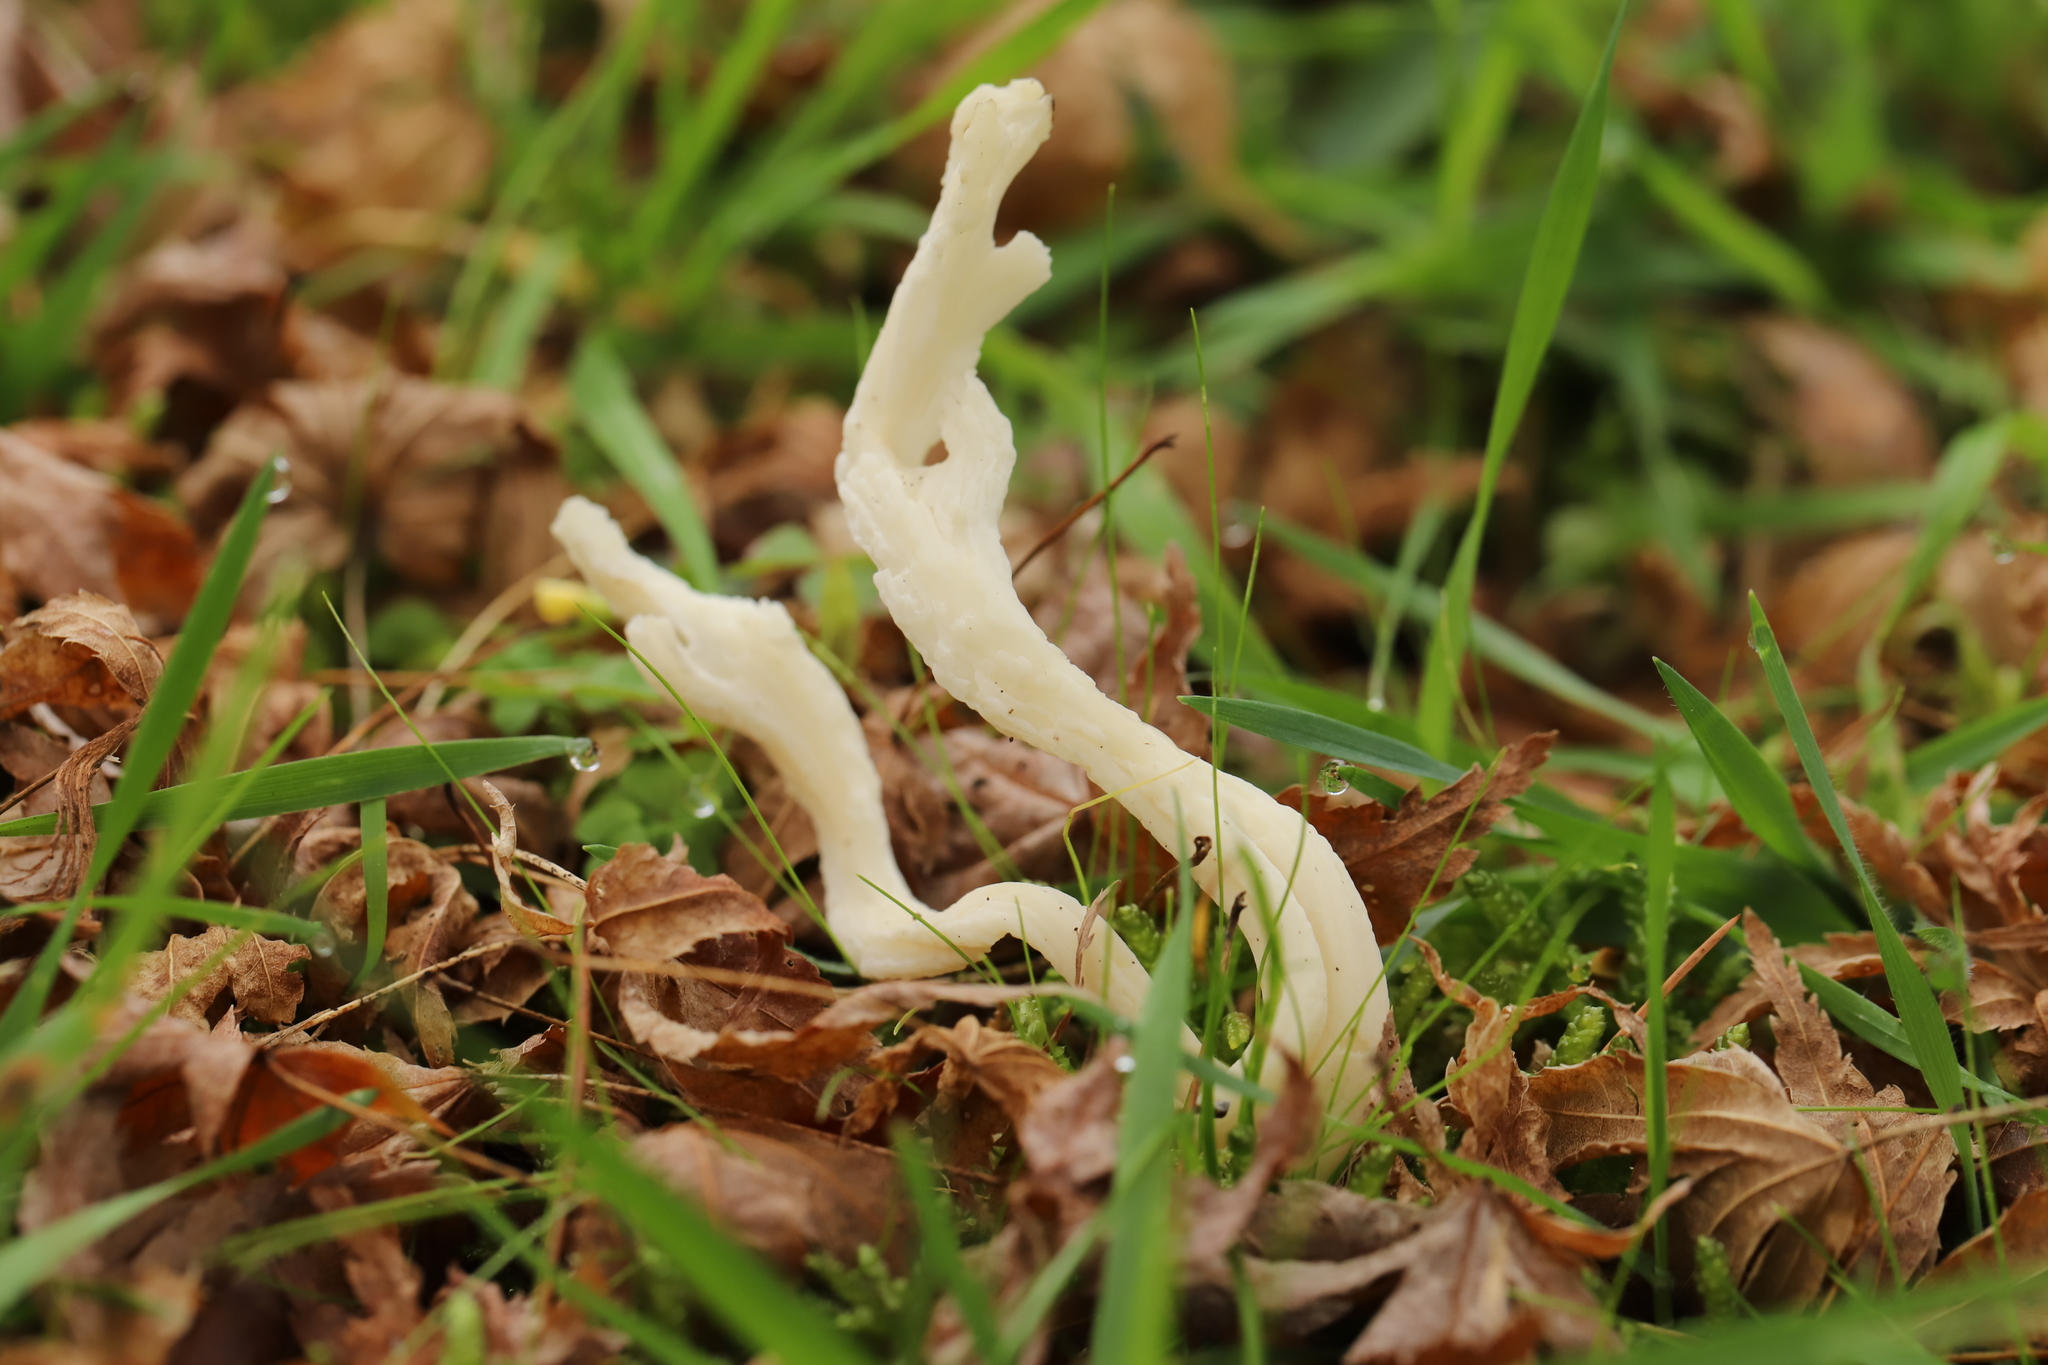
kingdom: Fungi
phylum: Basidiomycota
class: Agaricomycetes
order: Cantharellales
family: Hydnaceae
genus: Clavulina
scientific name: Clavulina rugosa
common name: Wrinkled club
